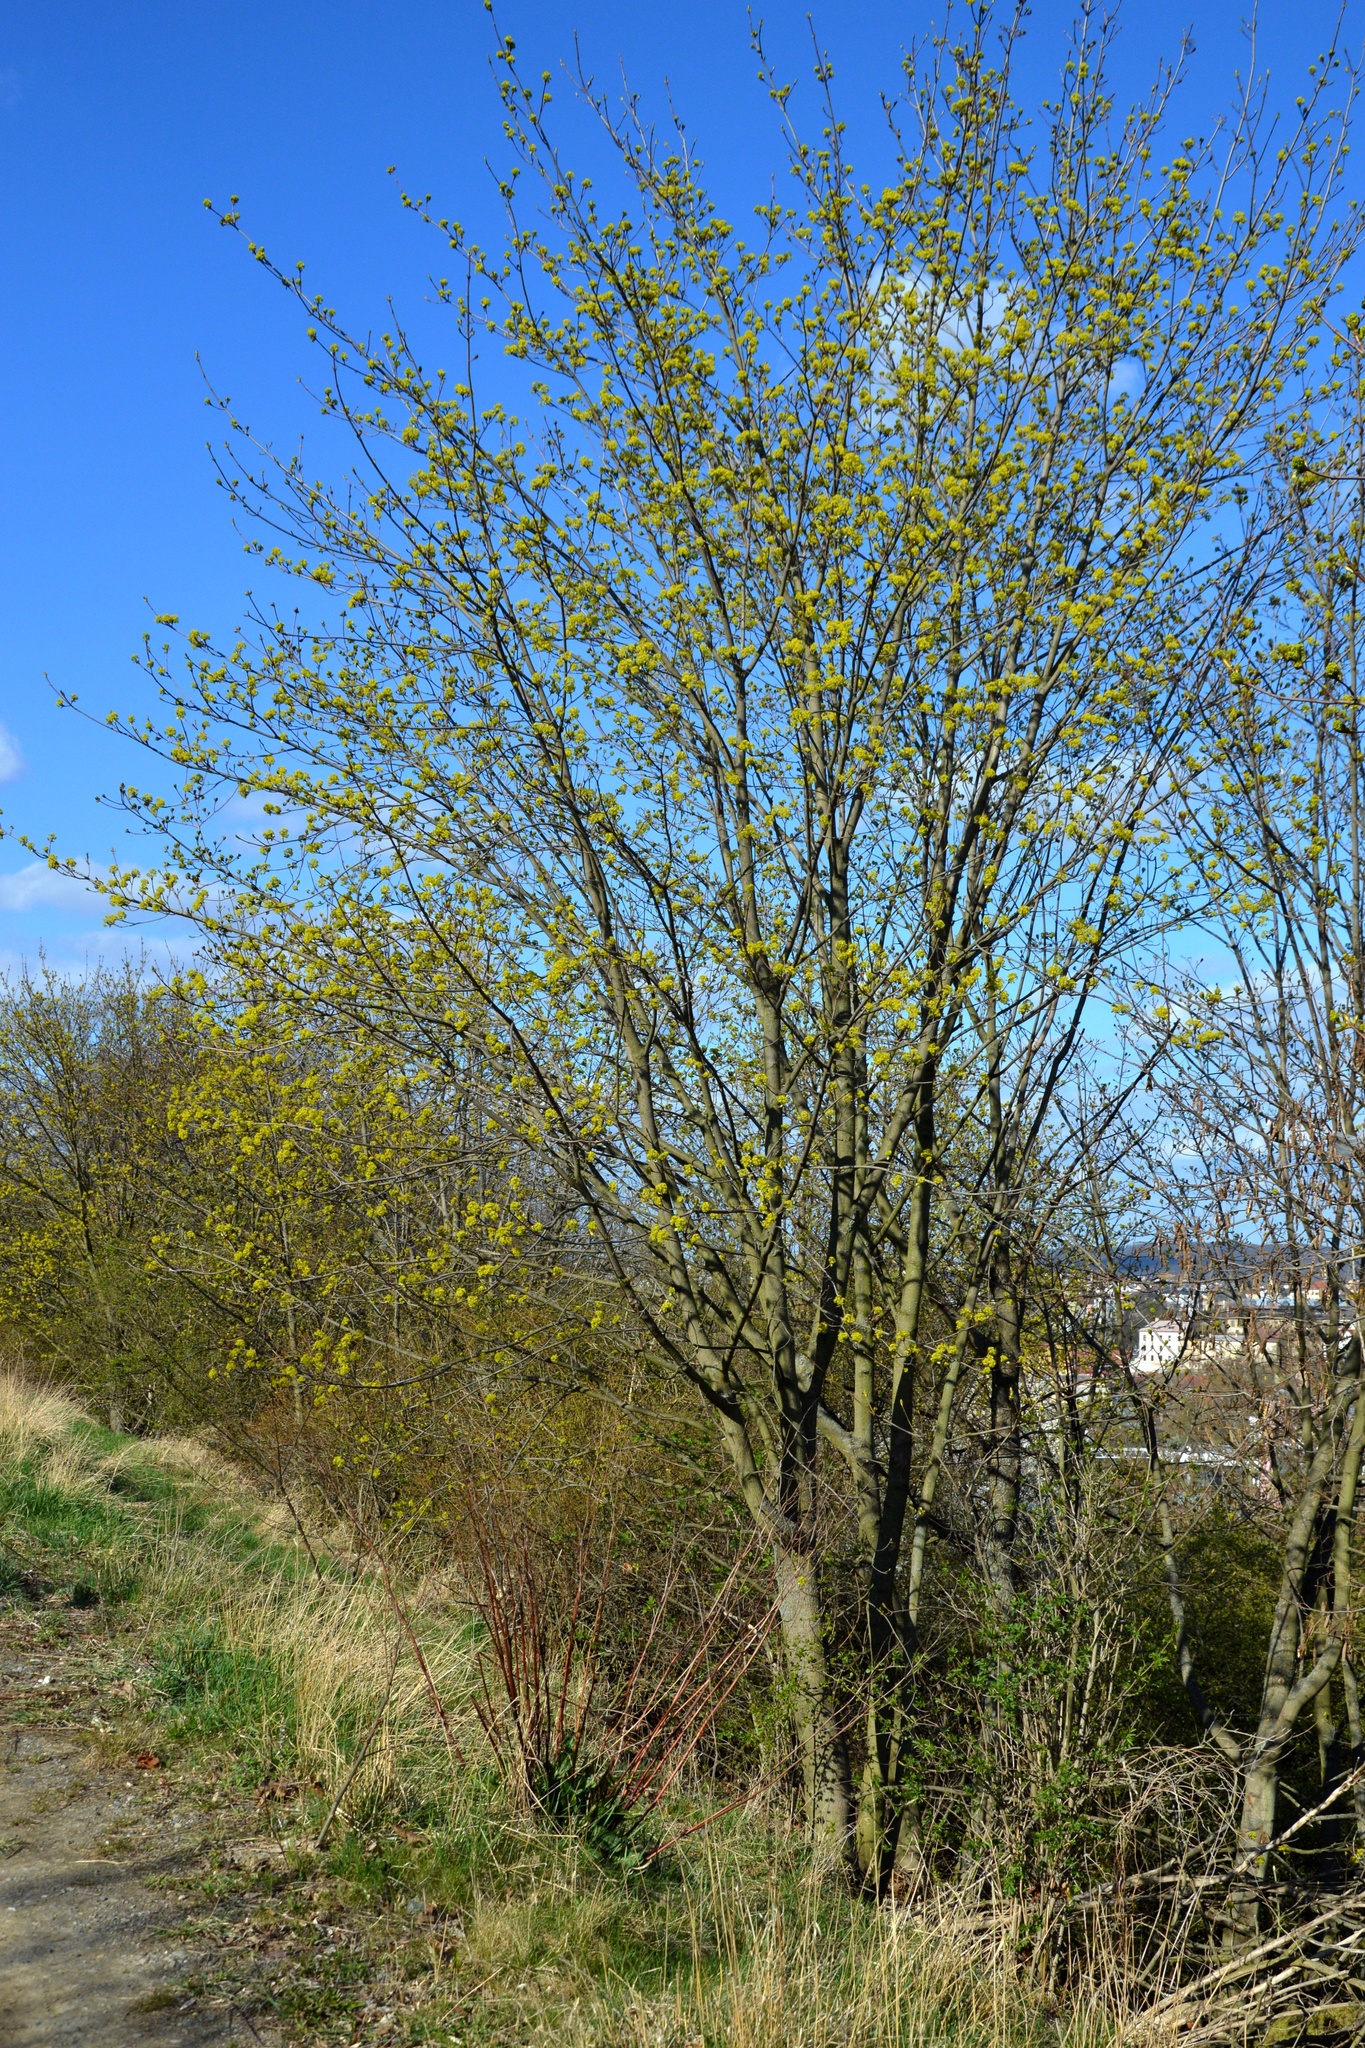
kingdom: Plantae
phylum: Tracheophyta
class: Magnoliopsida
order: Sapindales
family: Sapindaceae
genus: Acer
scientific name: Acer platanoides
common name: Norway maple
